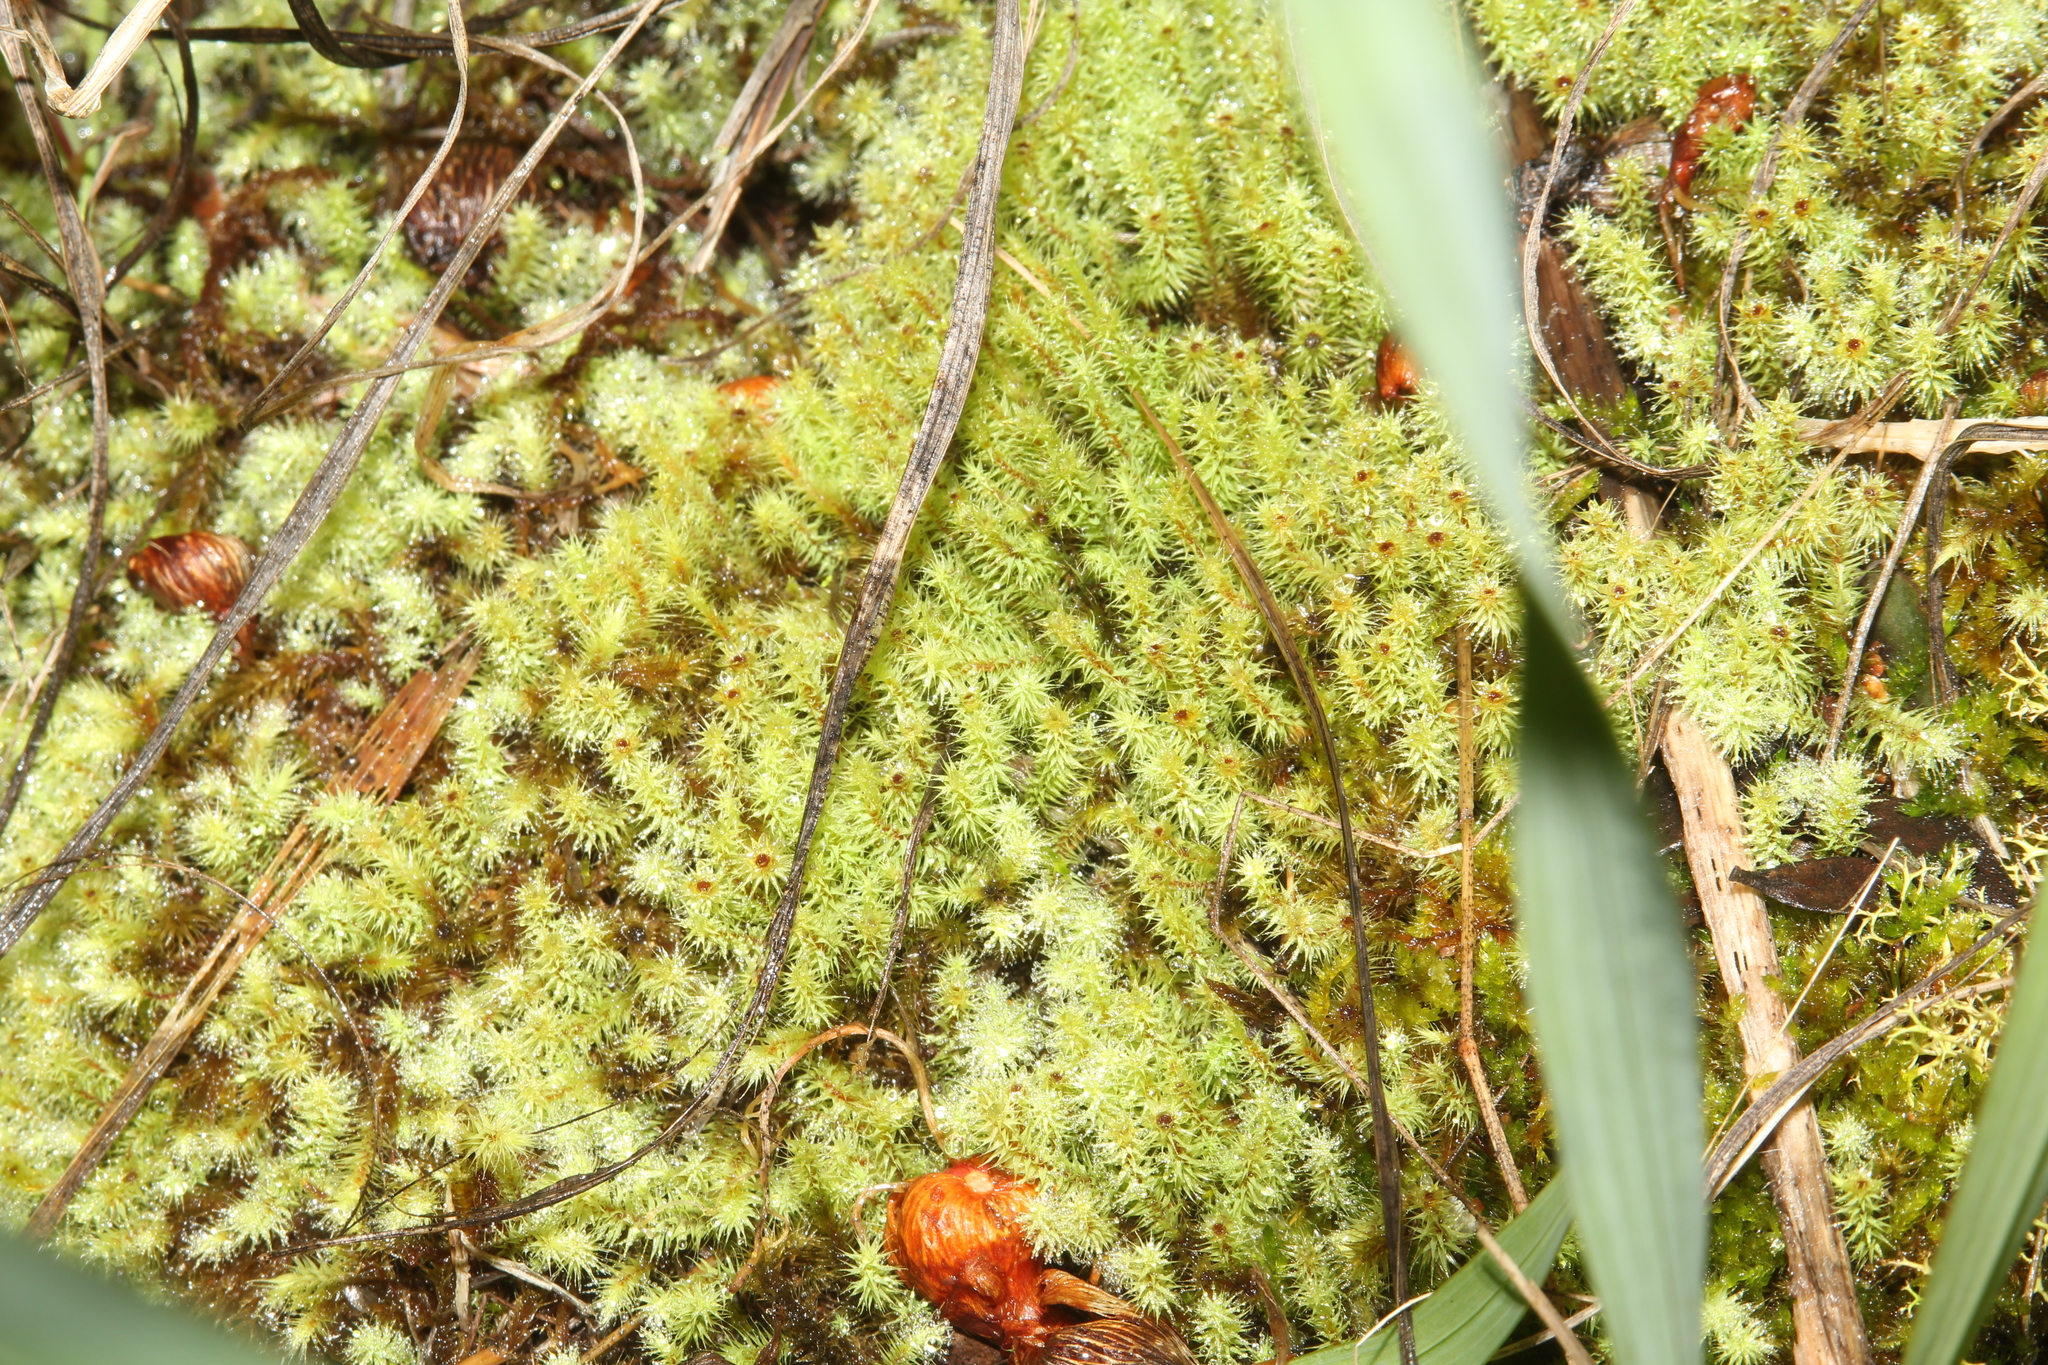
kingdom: Plantae
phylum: Bryophyta
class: Bryopsida
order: Bartramiales
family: Bartramiaceae
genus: Breutelia
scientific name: Breutelia affinis
